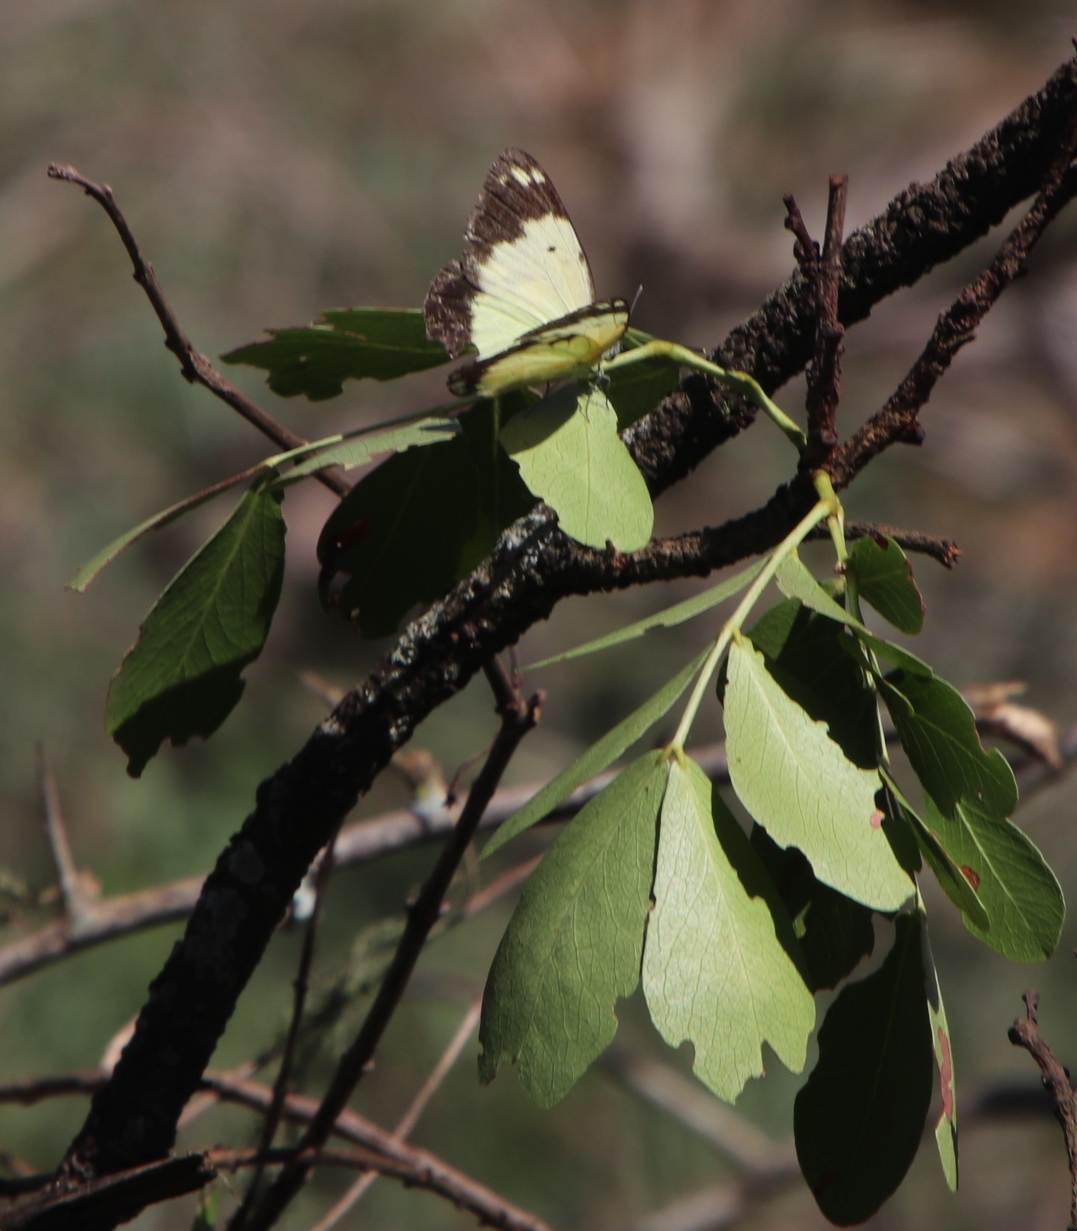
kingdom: Animalia
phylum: Arthropoda
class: Insecta
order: Lepidoptera
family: Pieridae
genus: Belenois
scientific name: Belenois creona
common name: African caper white
